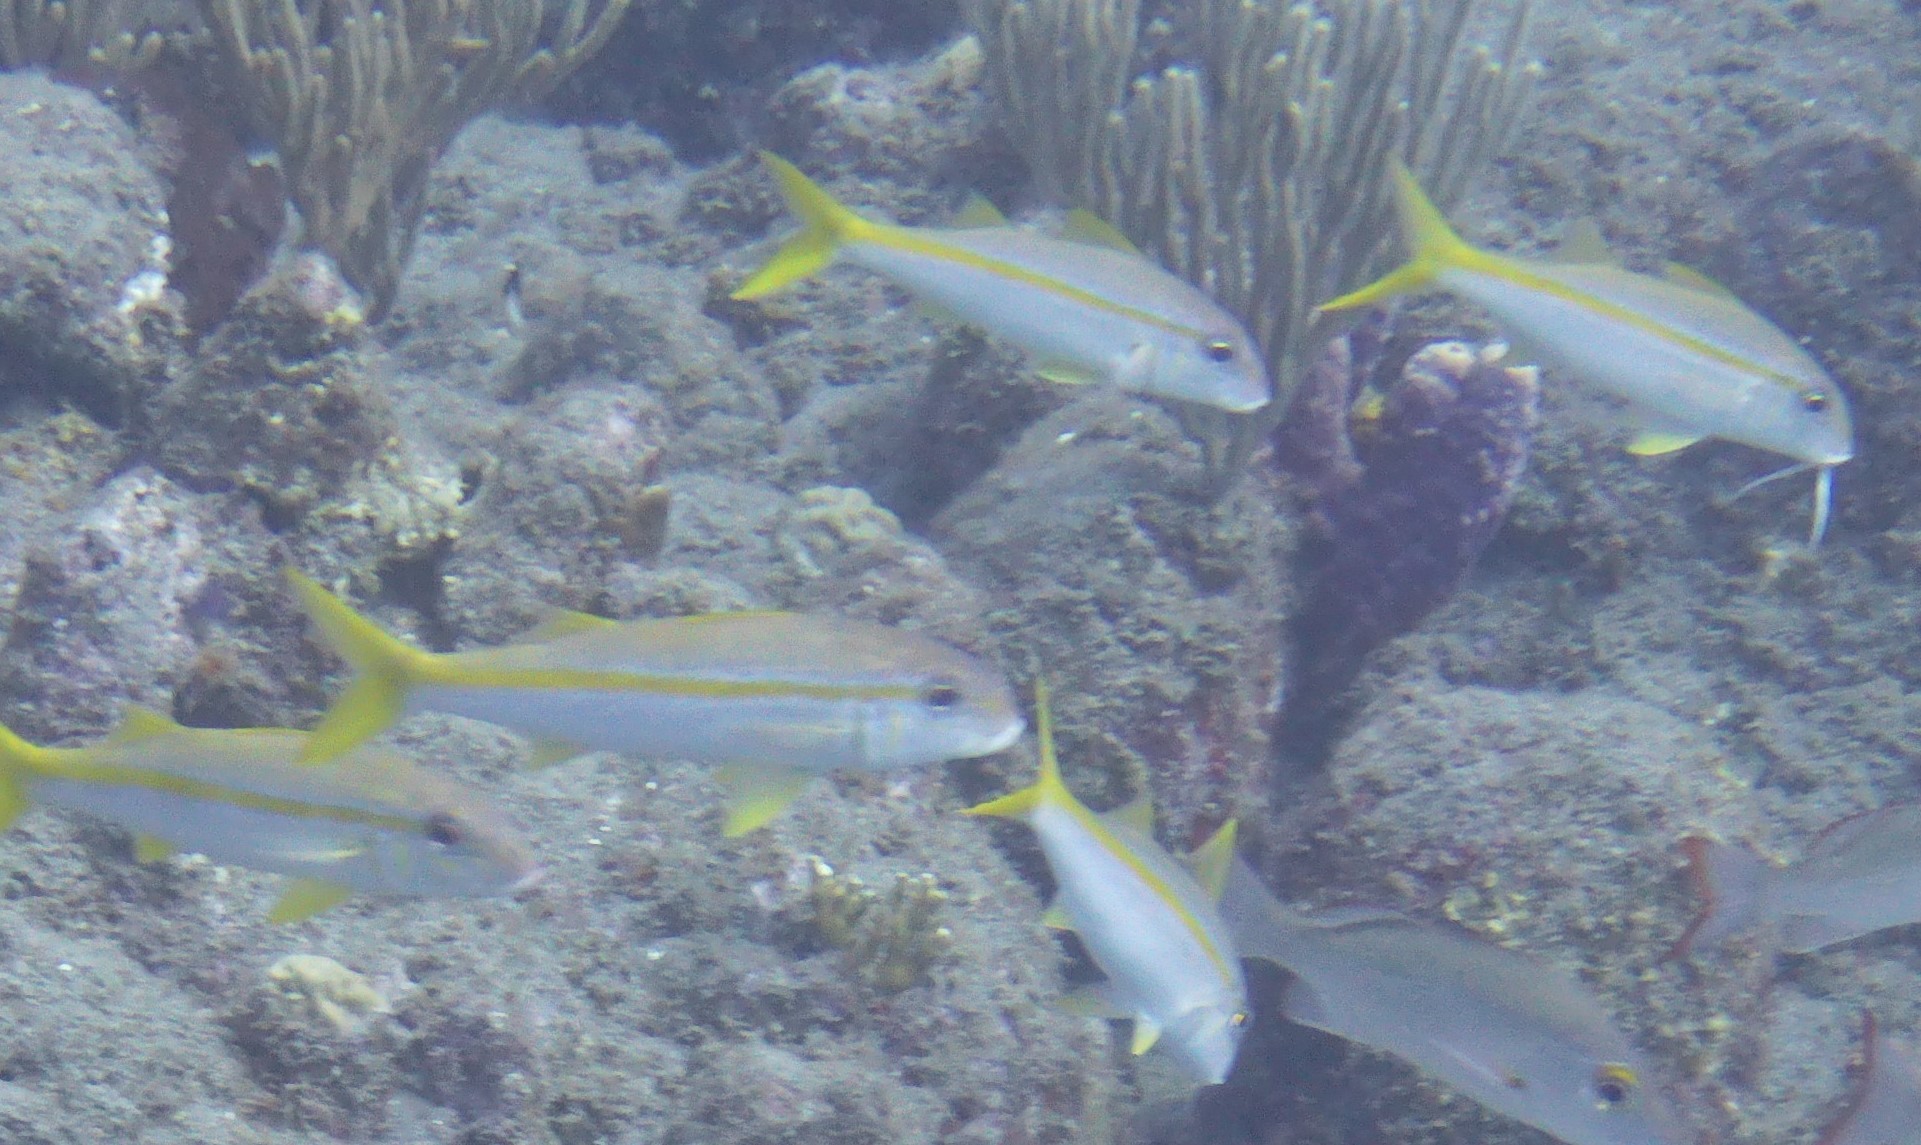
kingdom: Animalia
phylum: Chordata
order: Perciformes
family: Mullidae
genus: Mulloidichthys
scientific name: Mulloidichthys martinicus
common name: Yellow goatfish
